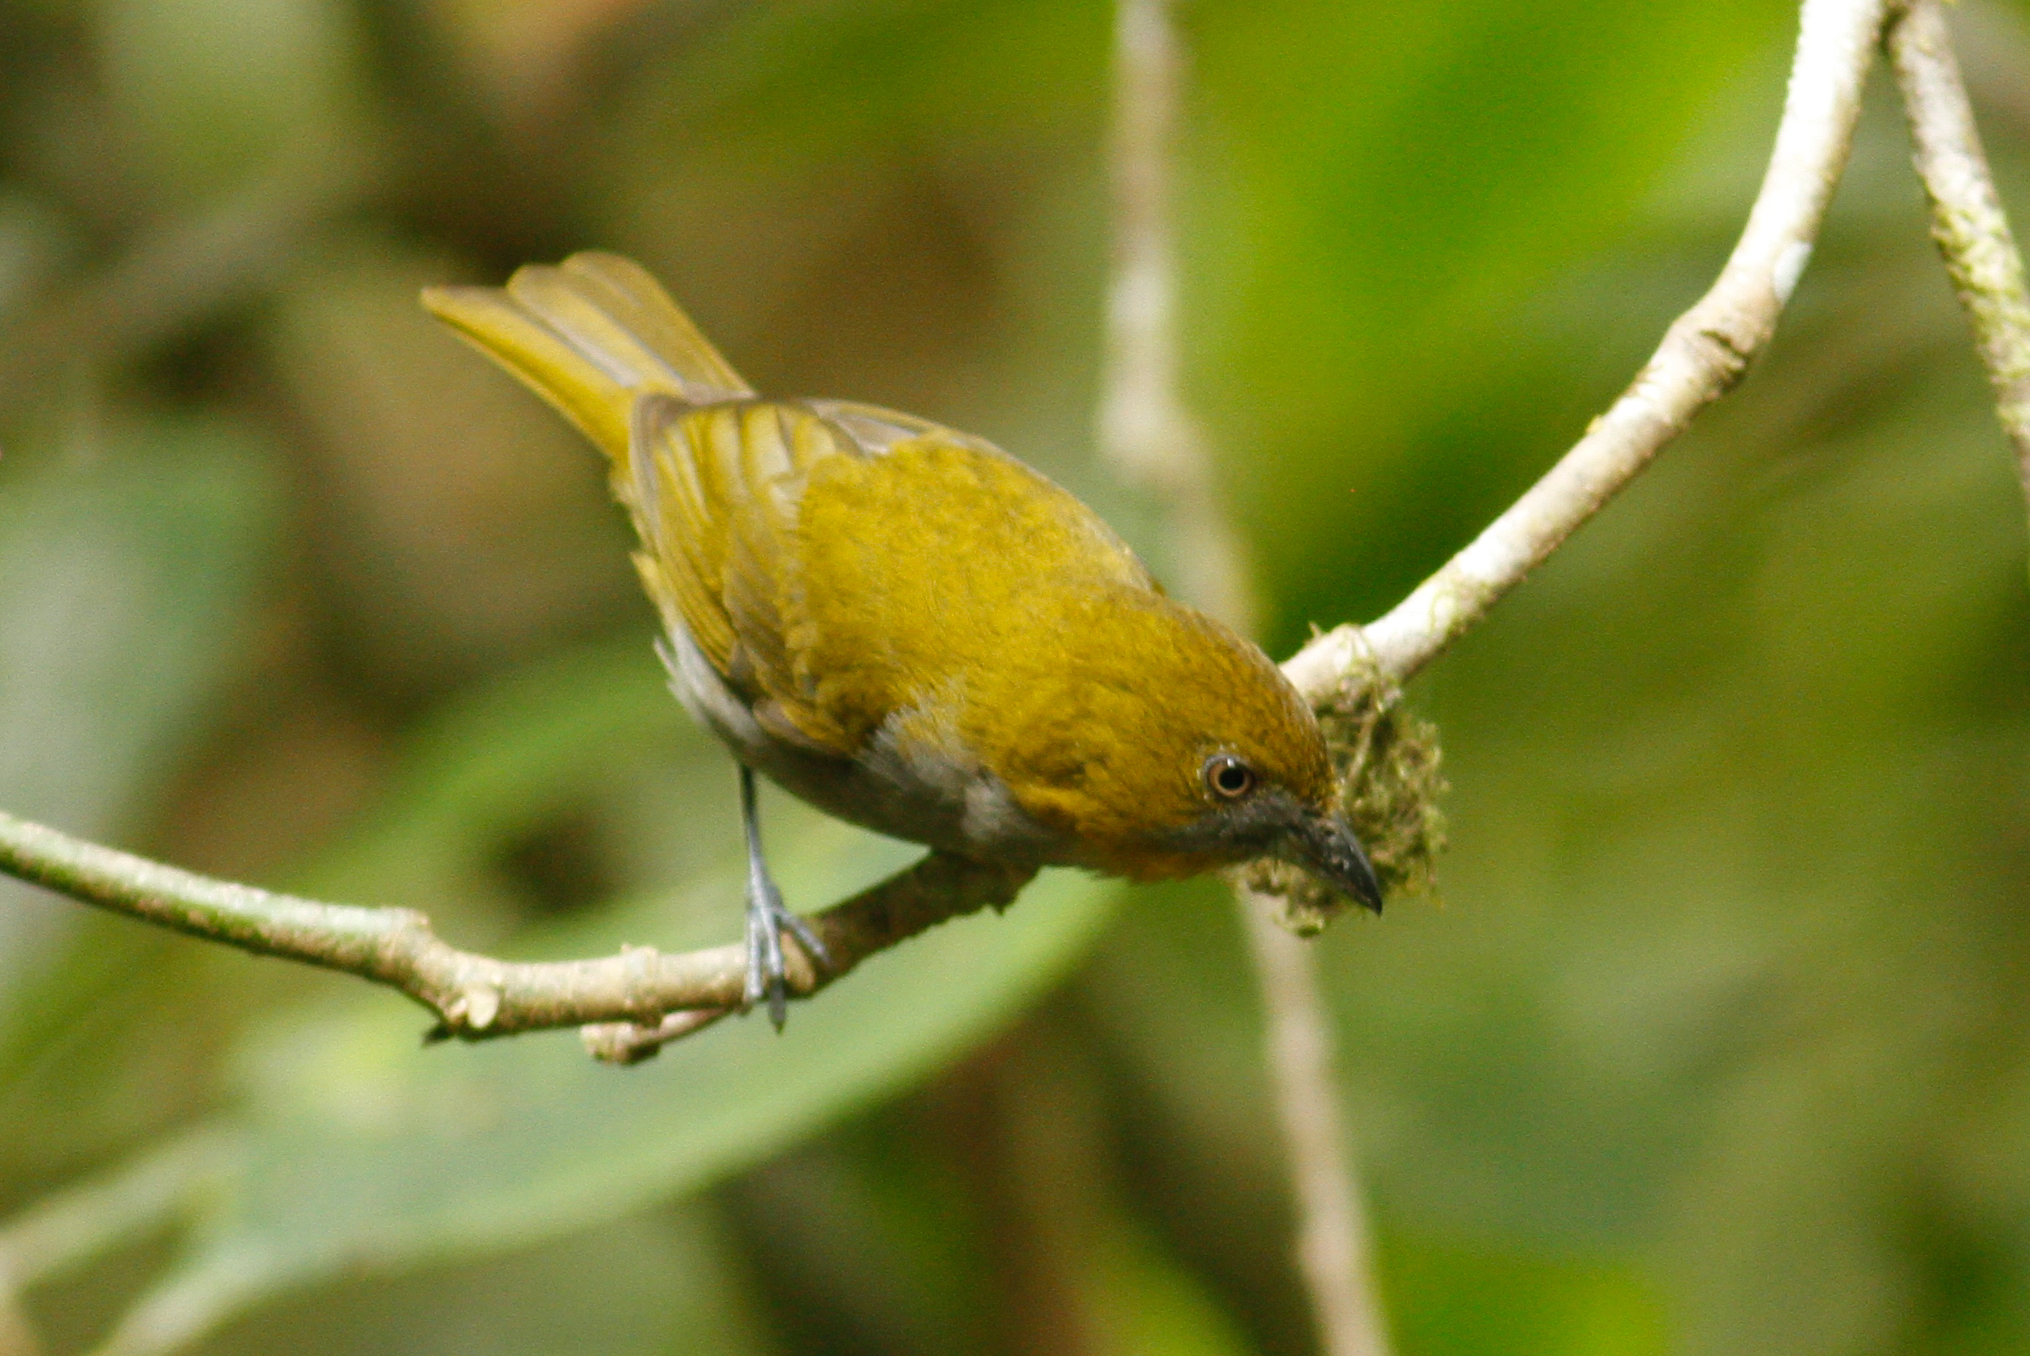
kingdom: Animalia
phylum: Chordata
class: Aves
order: Passeriformes
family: Passerellidae
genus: Chlorospingus
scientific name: Chlorospingus flavigularis
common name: Yellow-throated bush-tanager
